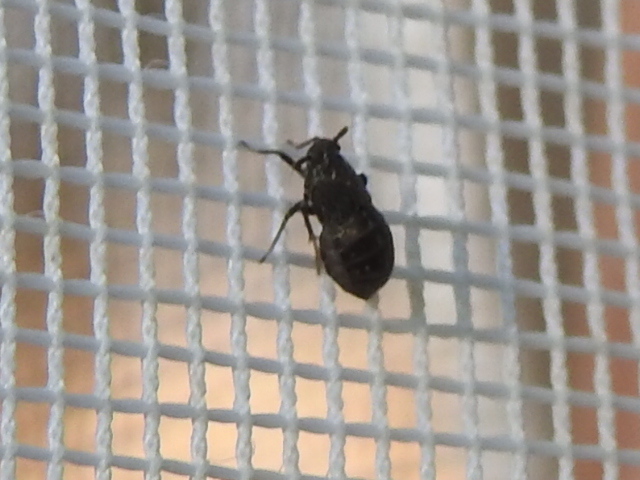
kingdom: Animalia
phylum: Arthropoda
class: Insecta
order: Hemiptera
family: Delphacidae
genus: Pissonotus
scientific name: Pissonotus brunneus
